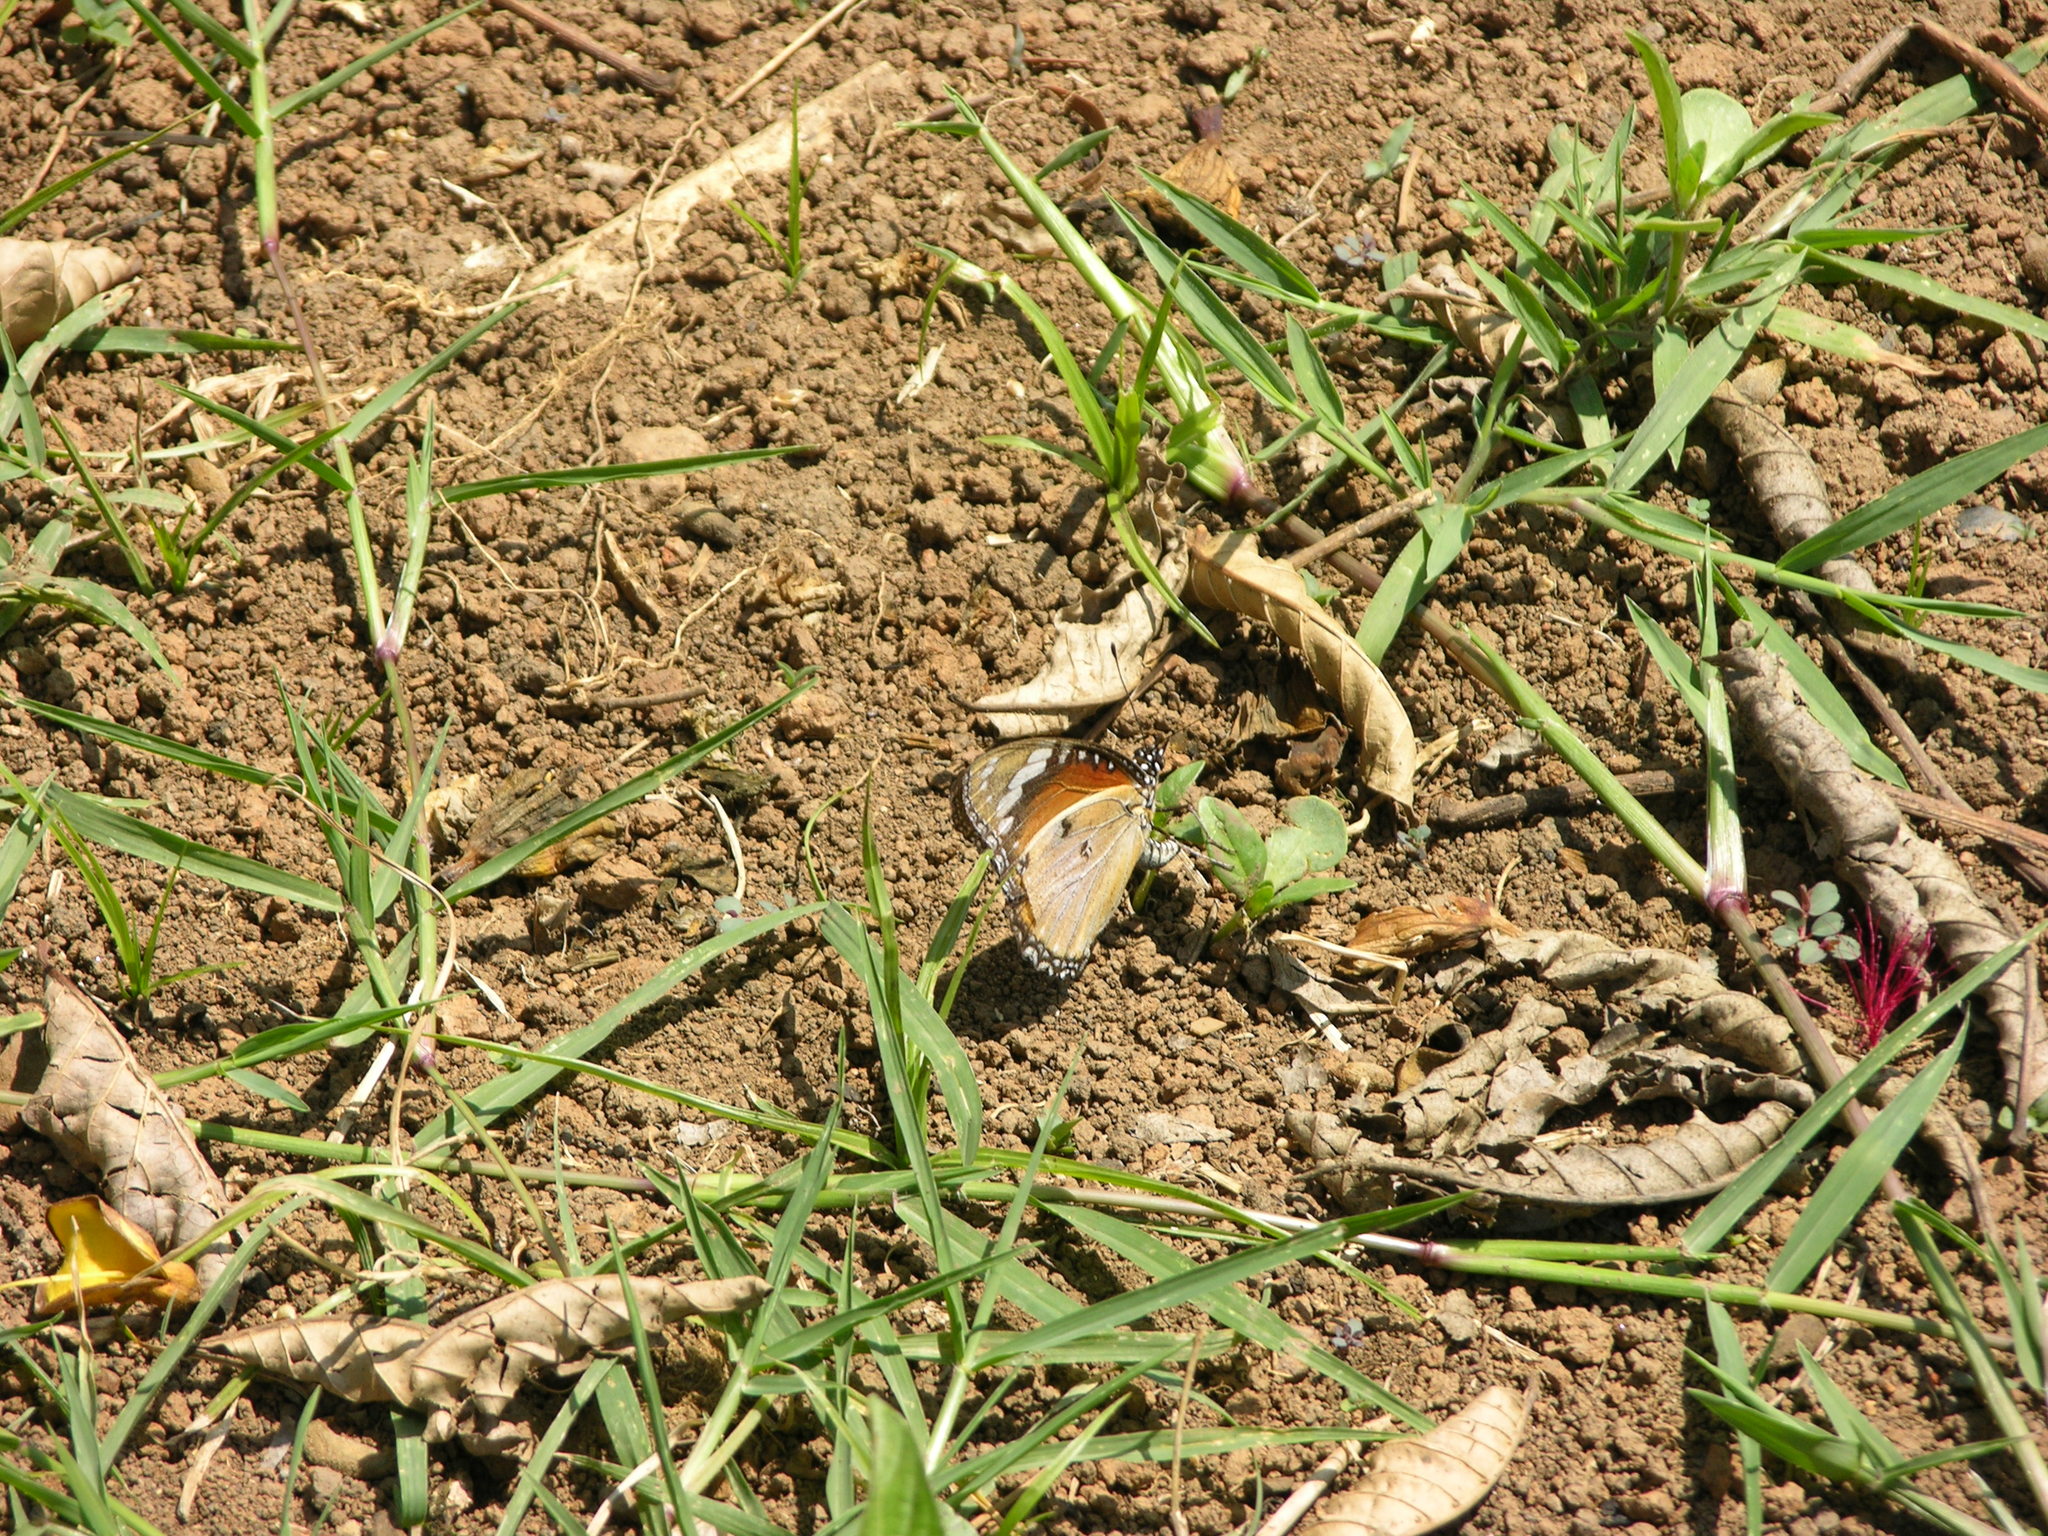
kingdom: Animalia
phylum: Arthropoda
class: Insecta
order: Lepidoptera
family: Nymphalidae
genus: Hypolimnas
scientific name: Hypolimnas misippus
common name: False plain tiger
